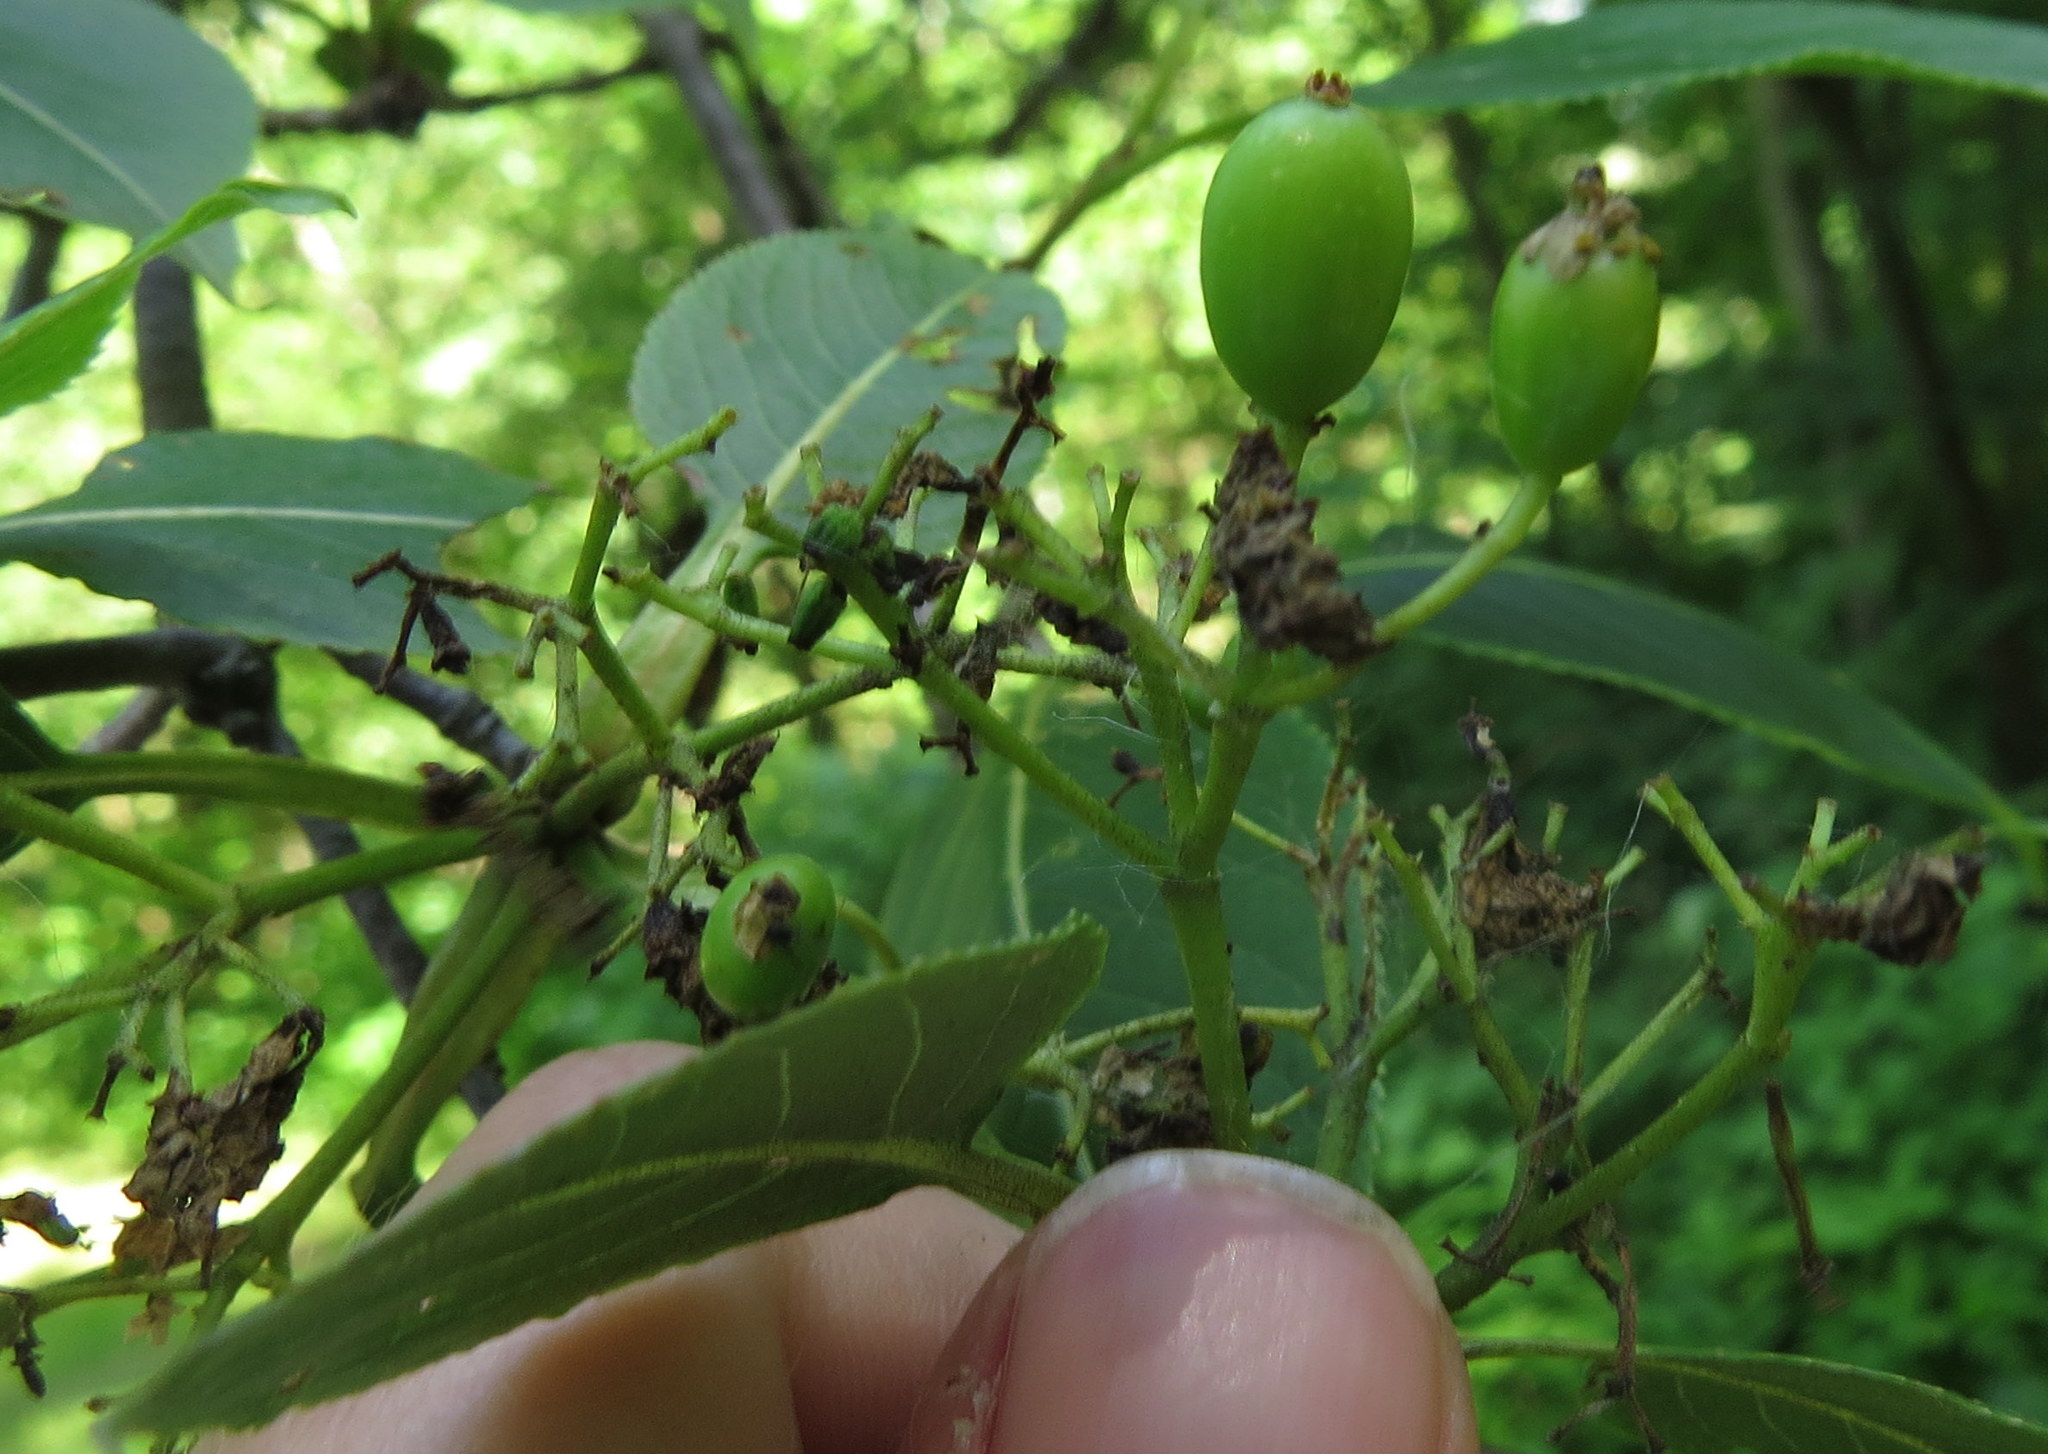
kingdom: Plantae
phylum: Tracheophyta
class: Magnoliopsida
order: Dipsacales
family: Viburnaceae
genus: Viburnum
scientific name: Viburnum lentago
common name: Black haw
